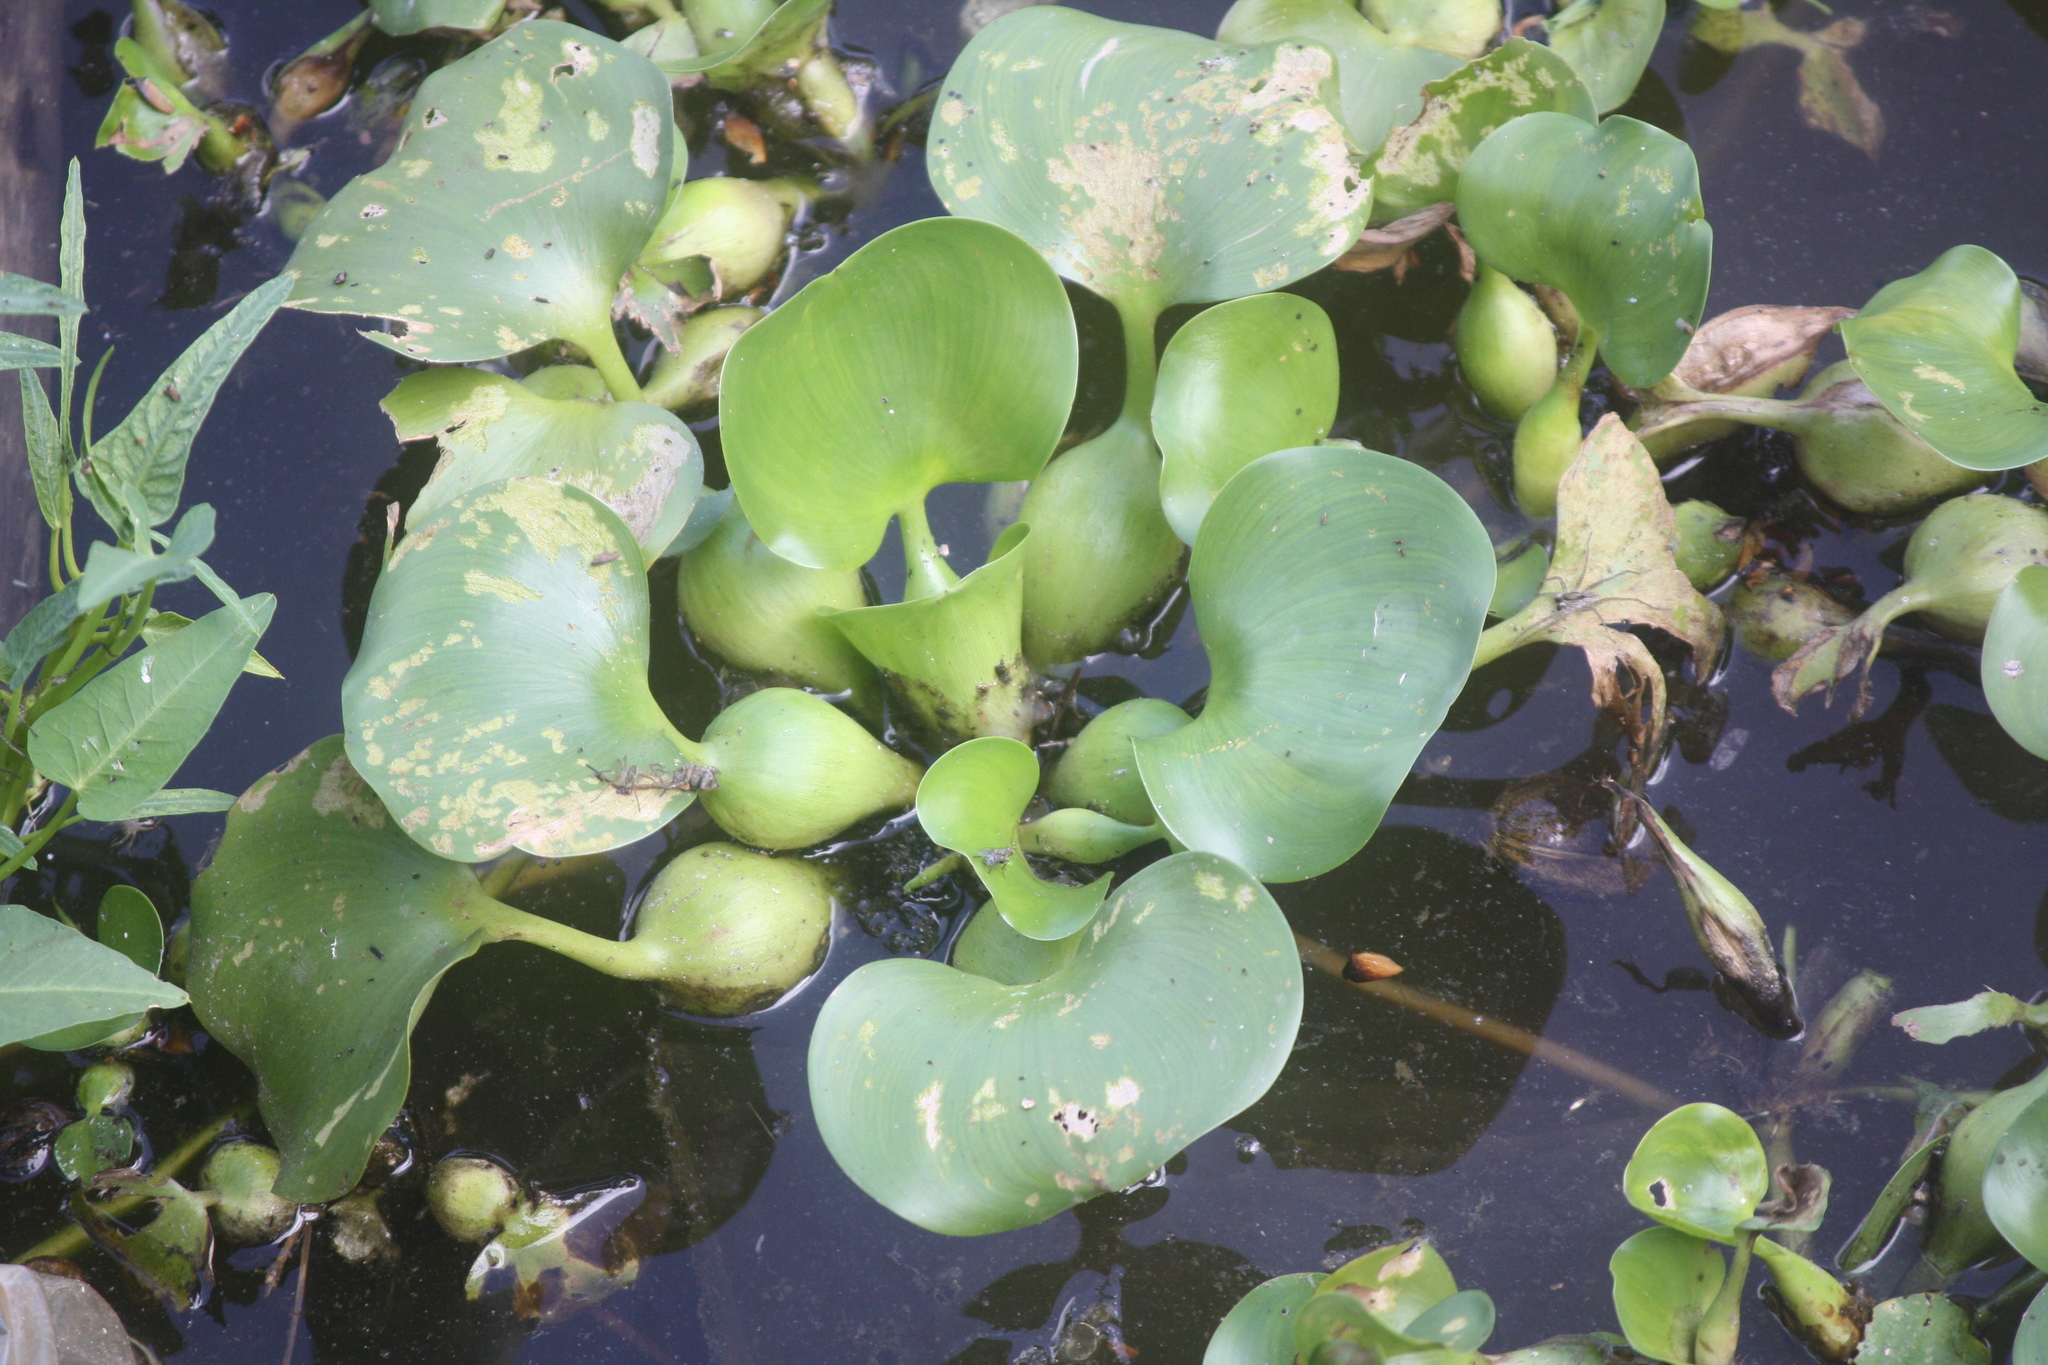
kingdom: Plantae
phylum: Tracheophyta
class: Liliopsida
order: Commelinales
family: Pontederiaceae
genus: Pontederia
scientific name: Pontederia crassipes
